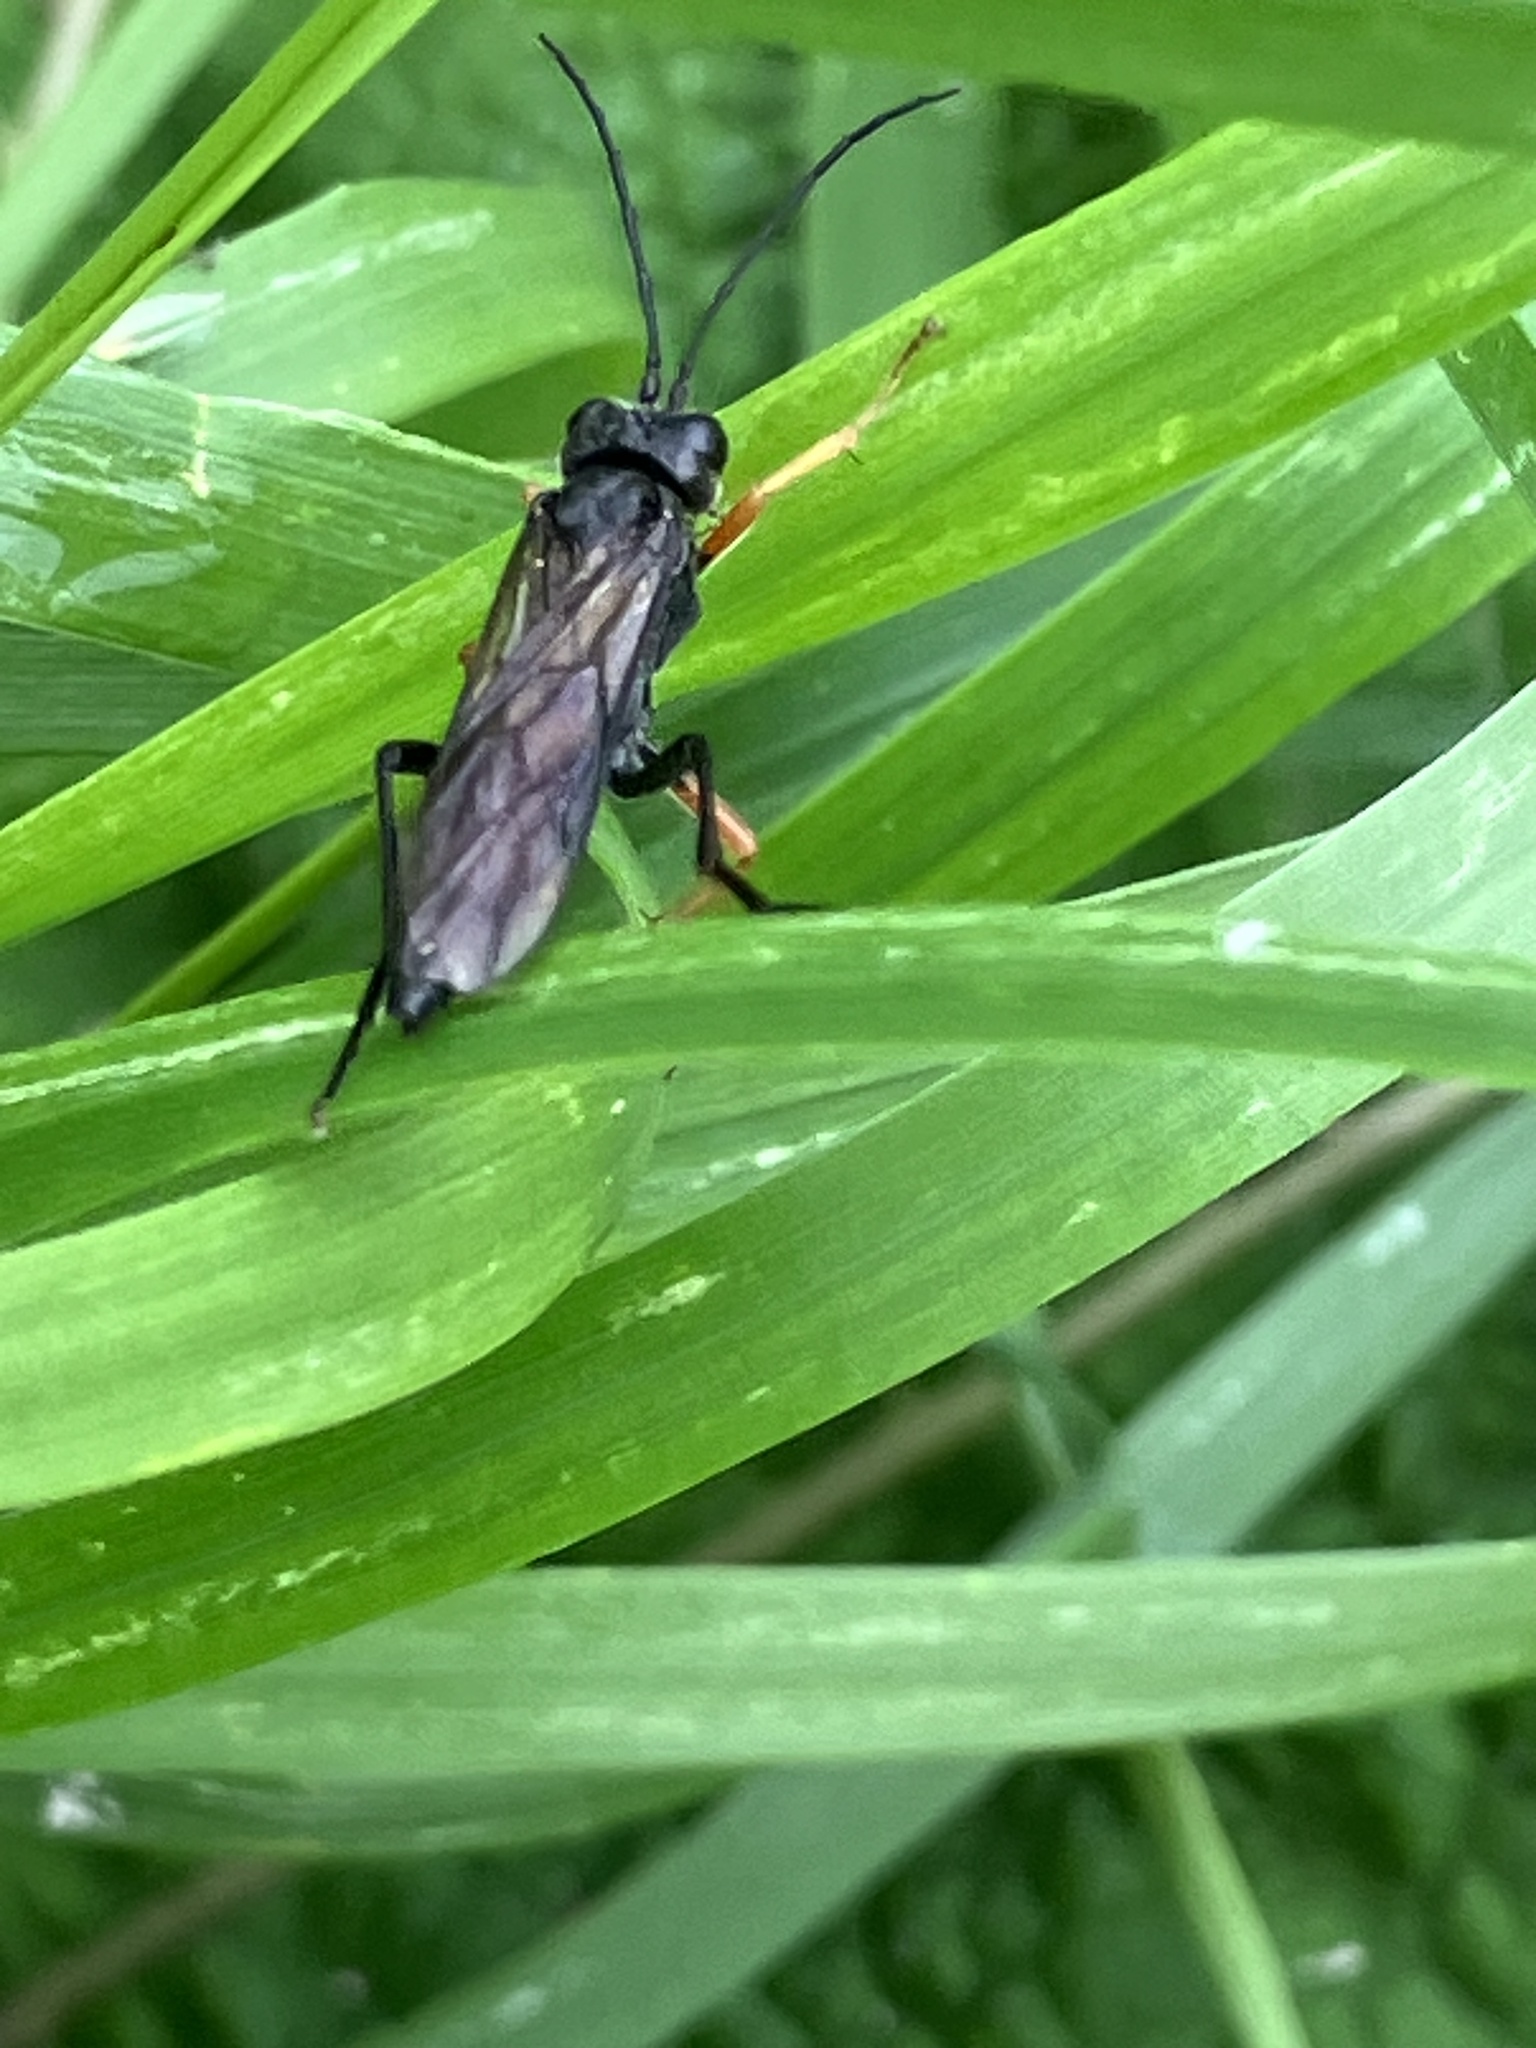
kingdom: Animalia
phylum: Arthropoda
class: Insecta
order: Hymenoptera
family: Tenthredinidae
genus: Tenthredo
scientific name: Tenthredo mandibularis
